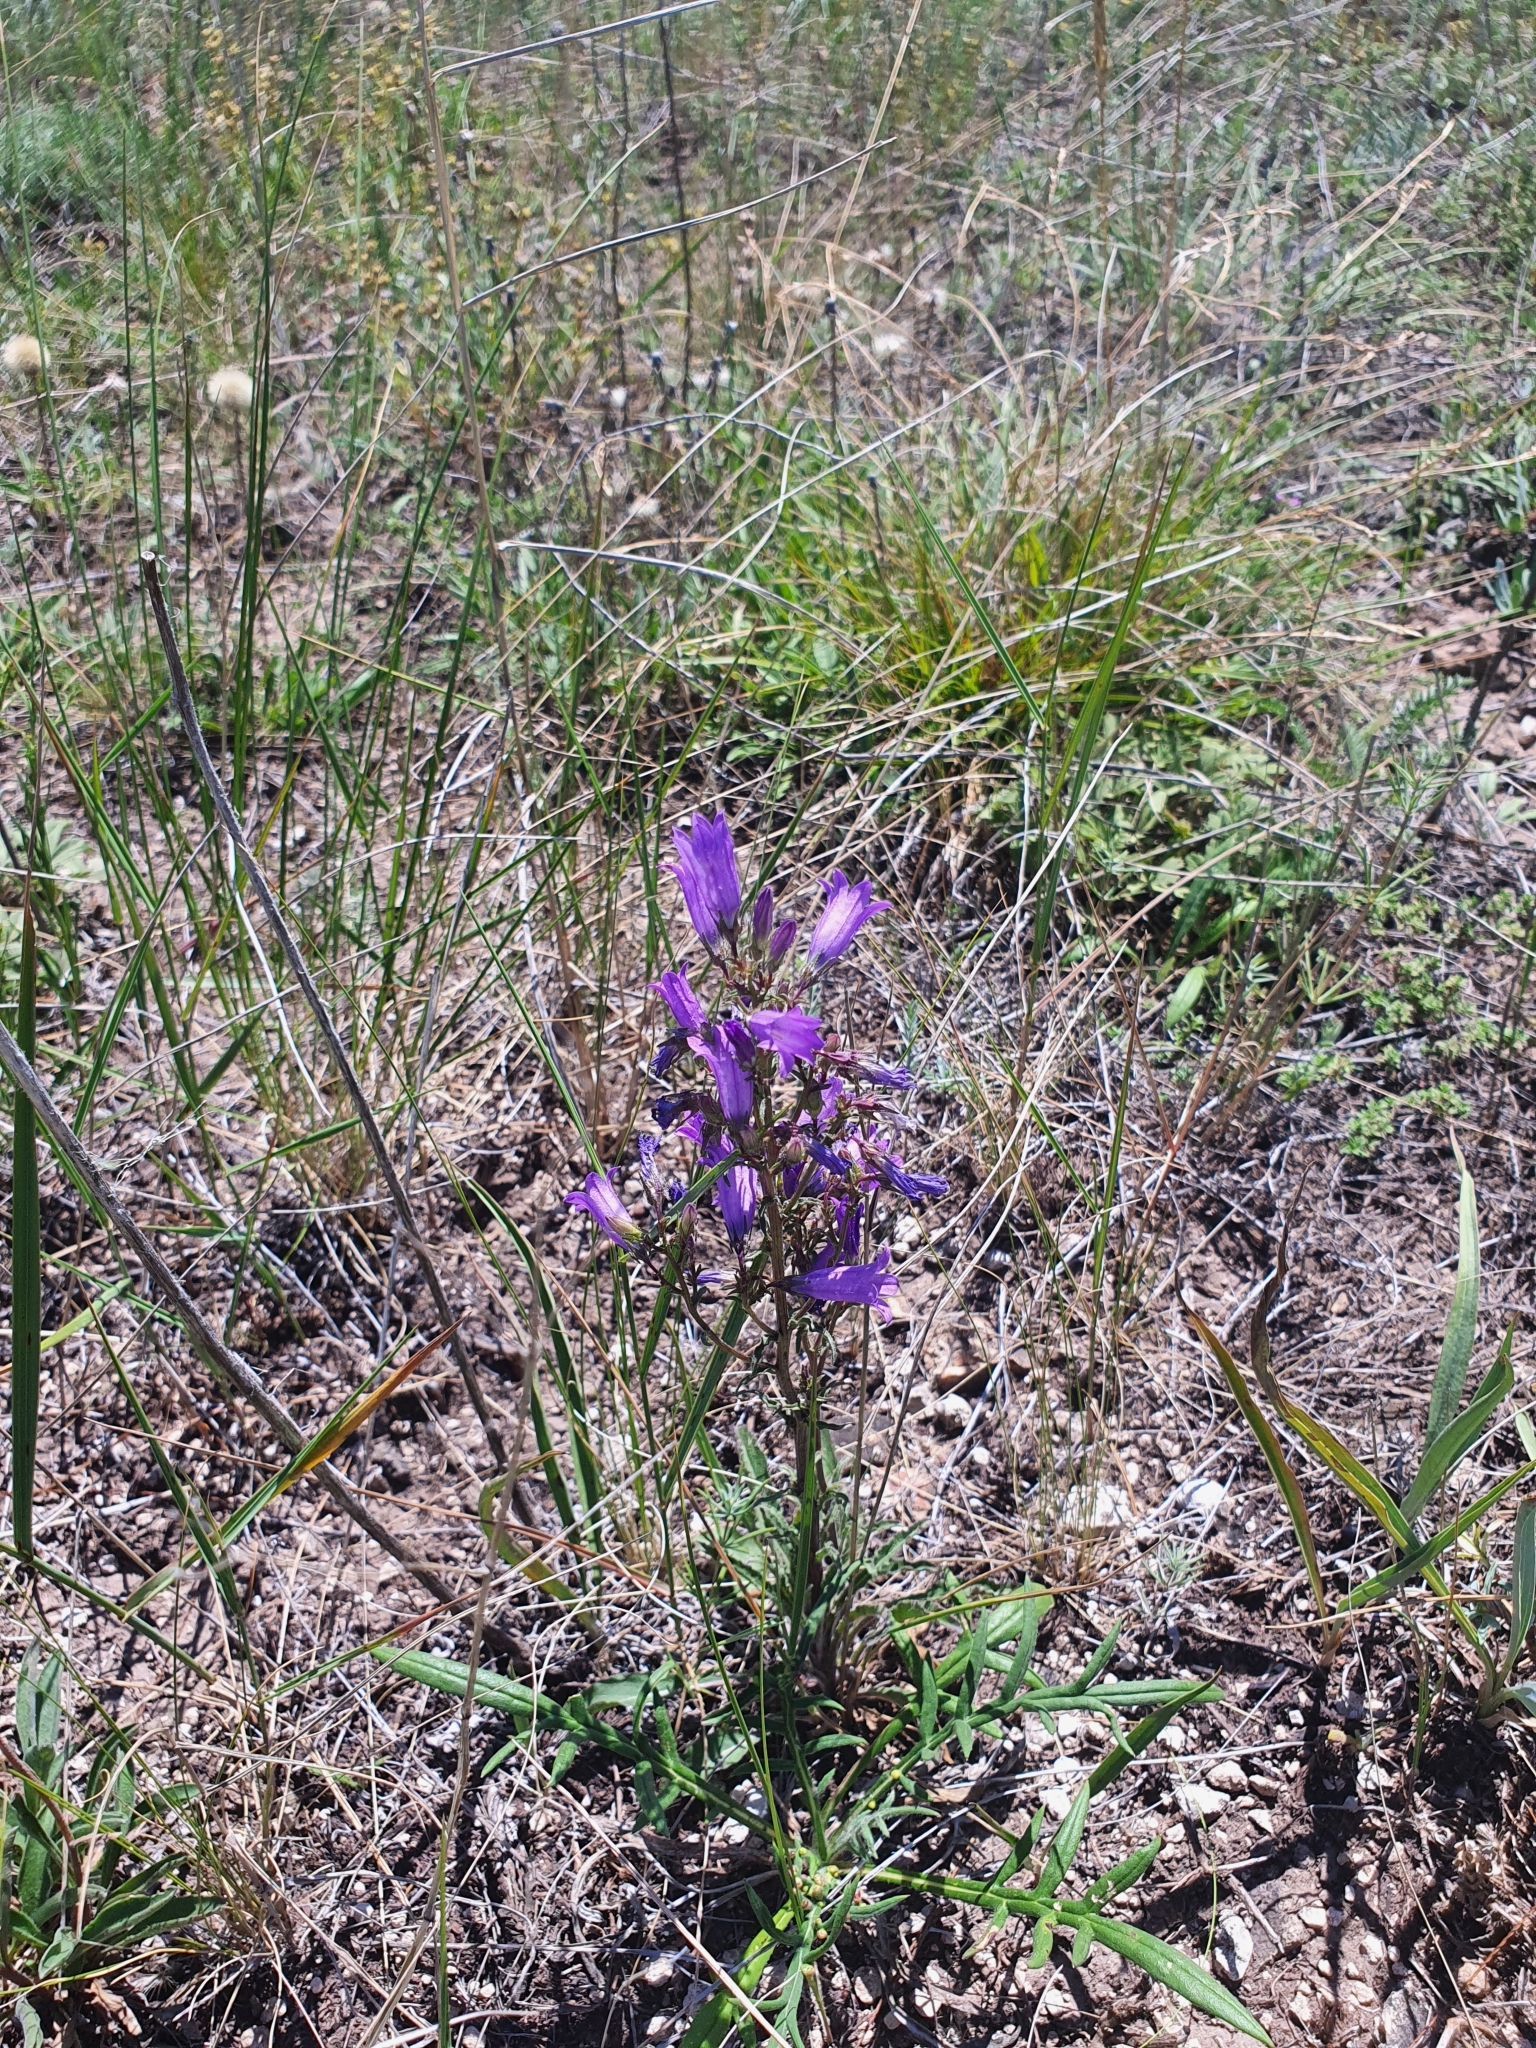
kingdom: Plantae
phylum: Tracheophyta
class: Magnoliopsida
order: Asterales
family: Campanulaceae
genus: Campanula
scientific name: Campanula sibirica
